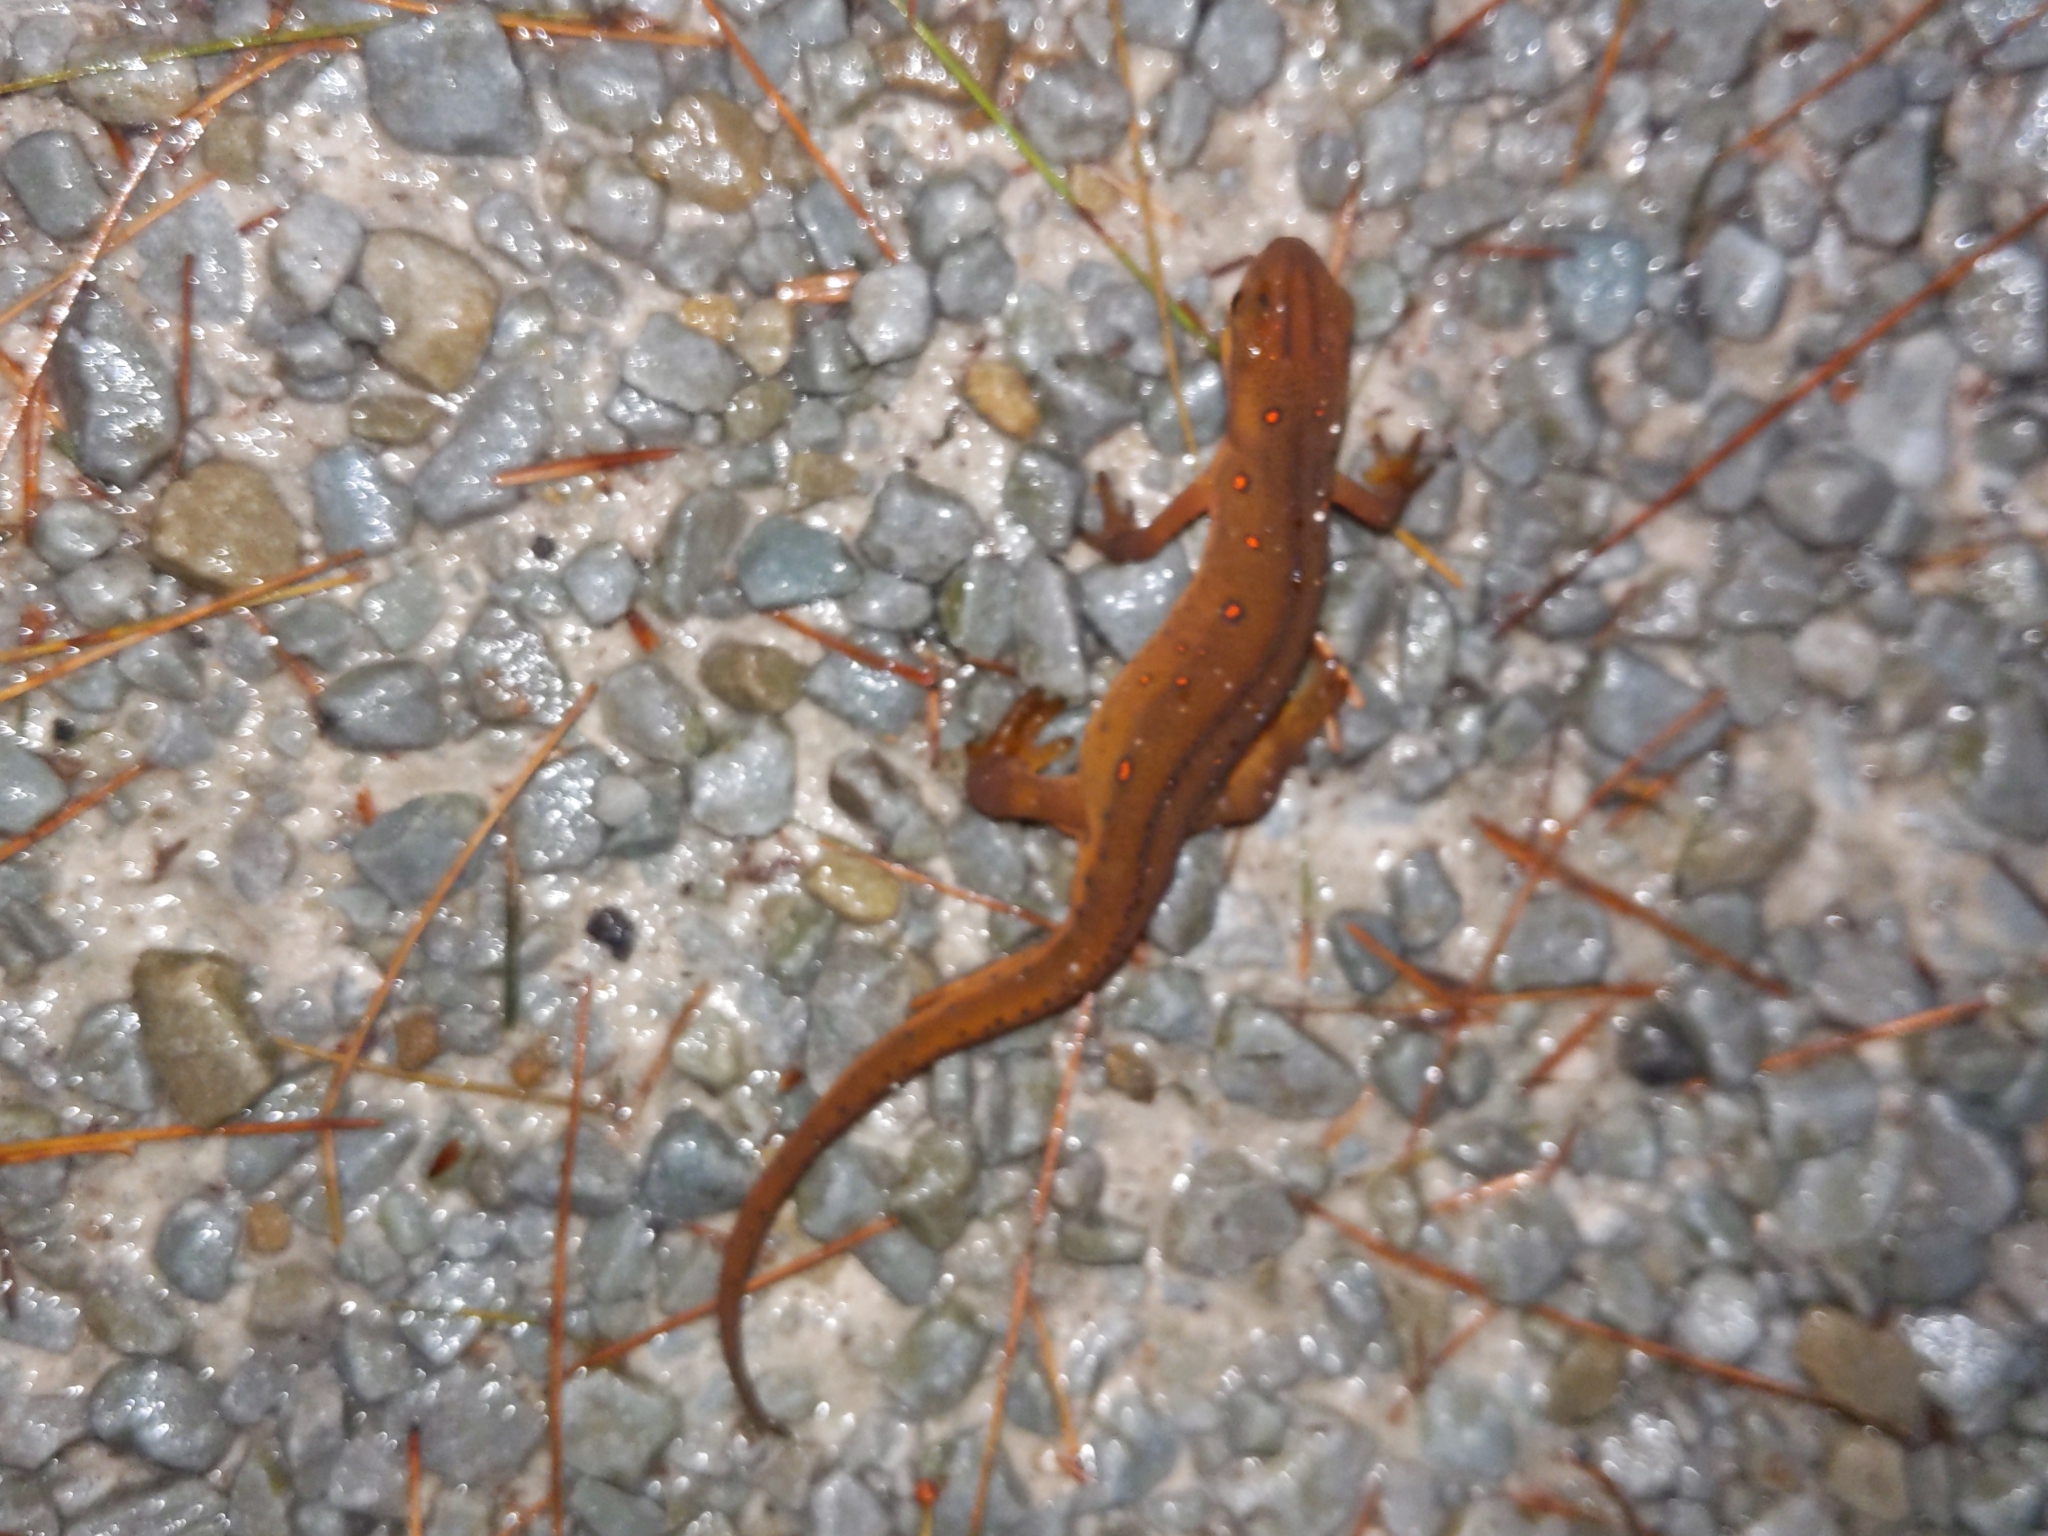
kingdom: Animalia
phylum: Chordata
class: Amphibia
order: Caudata
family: Salamandridae
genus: Notophthalmus
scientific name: Notophthalmus viridescens
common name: Eastern newt
